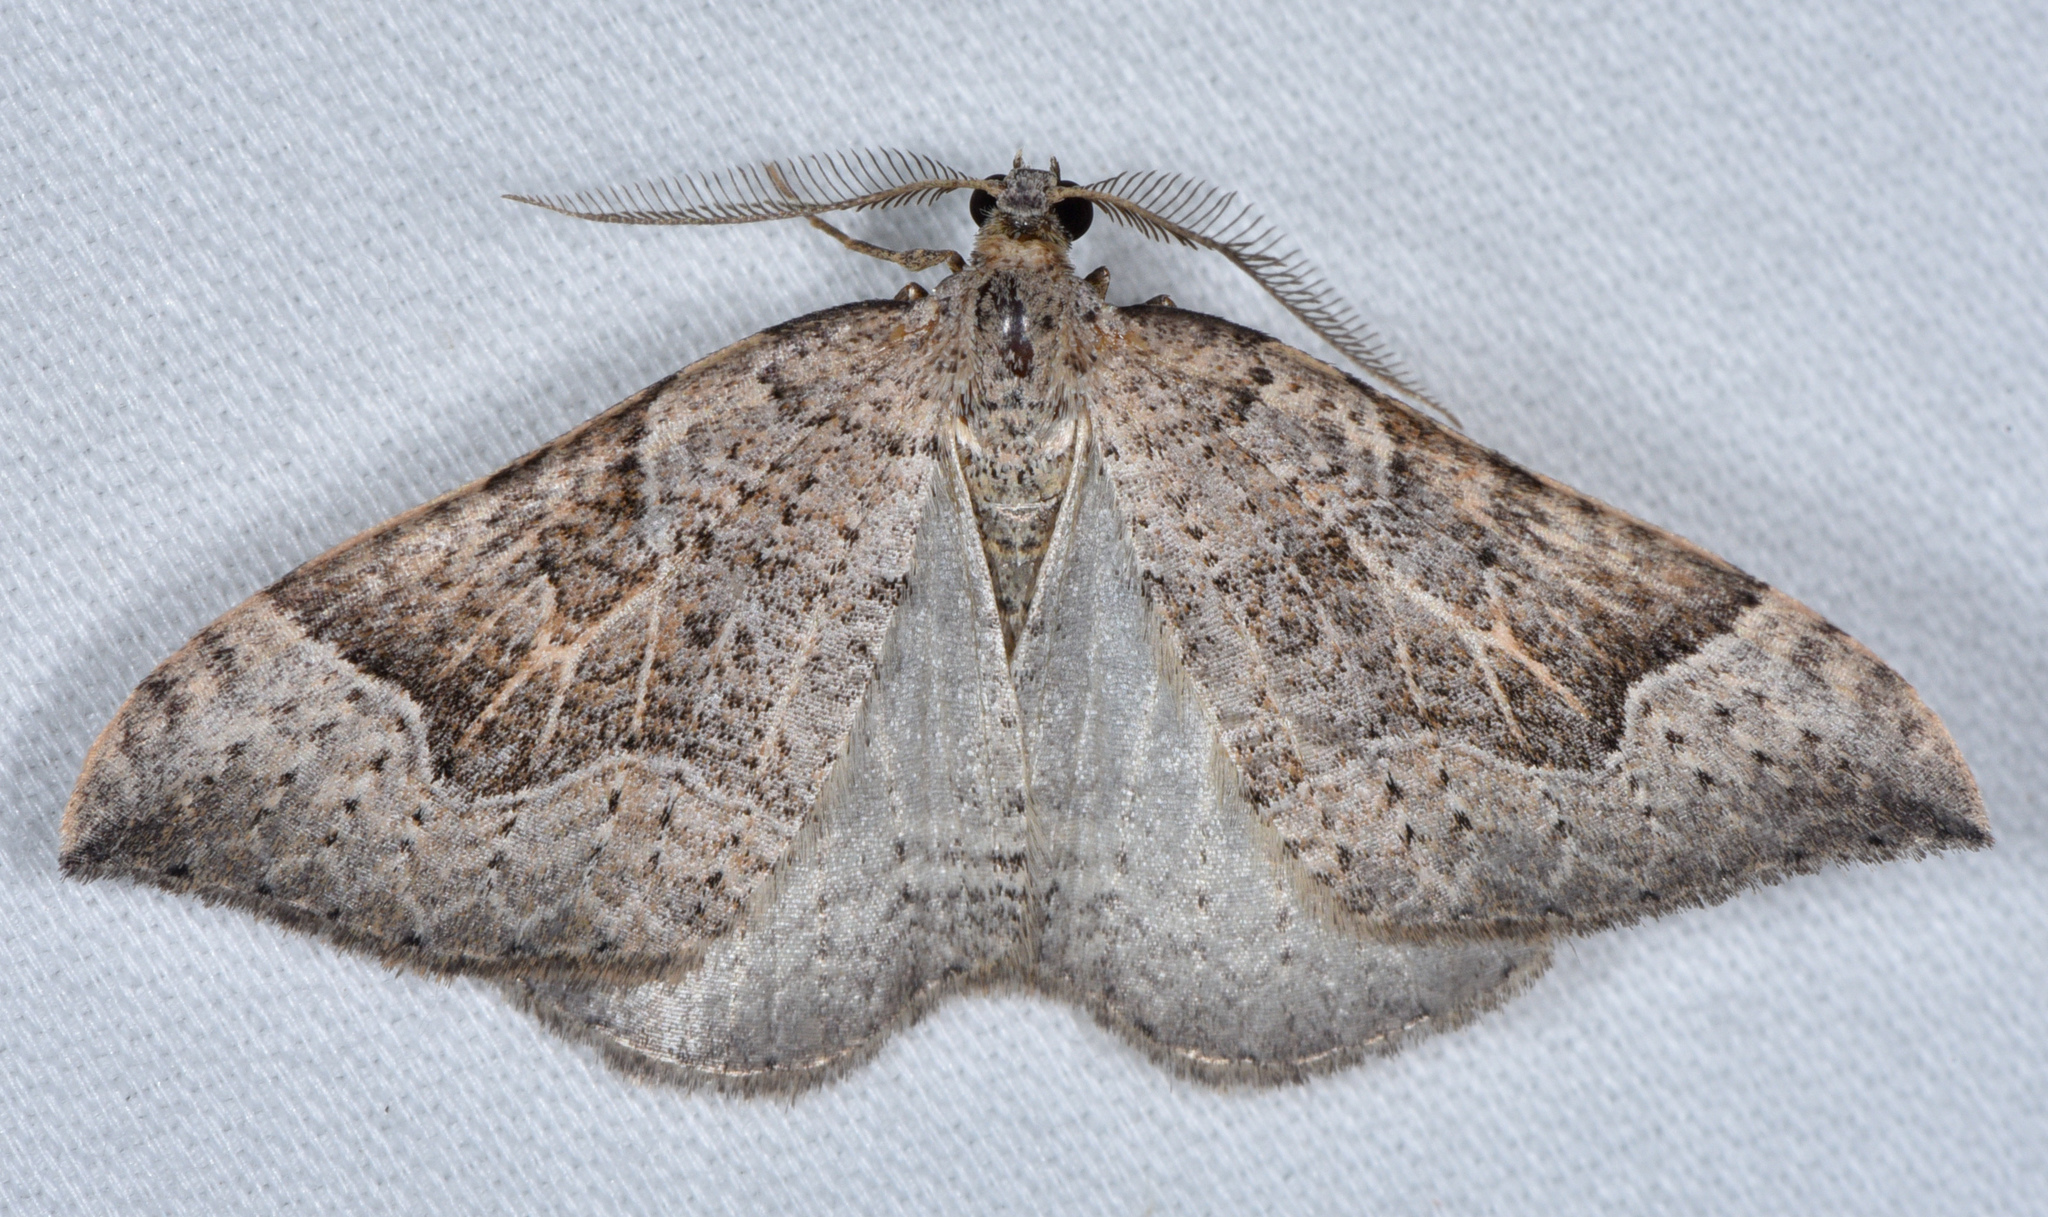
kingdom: Animalia
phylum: Arthropoda
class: Insecta
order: Lepidoptera
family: Geometridae
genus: Zenophleps
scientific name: Zenophleps lignicolorata
